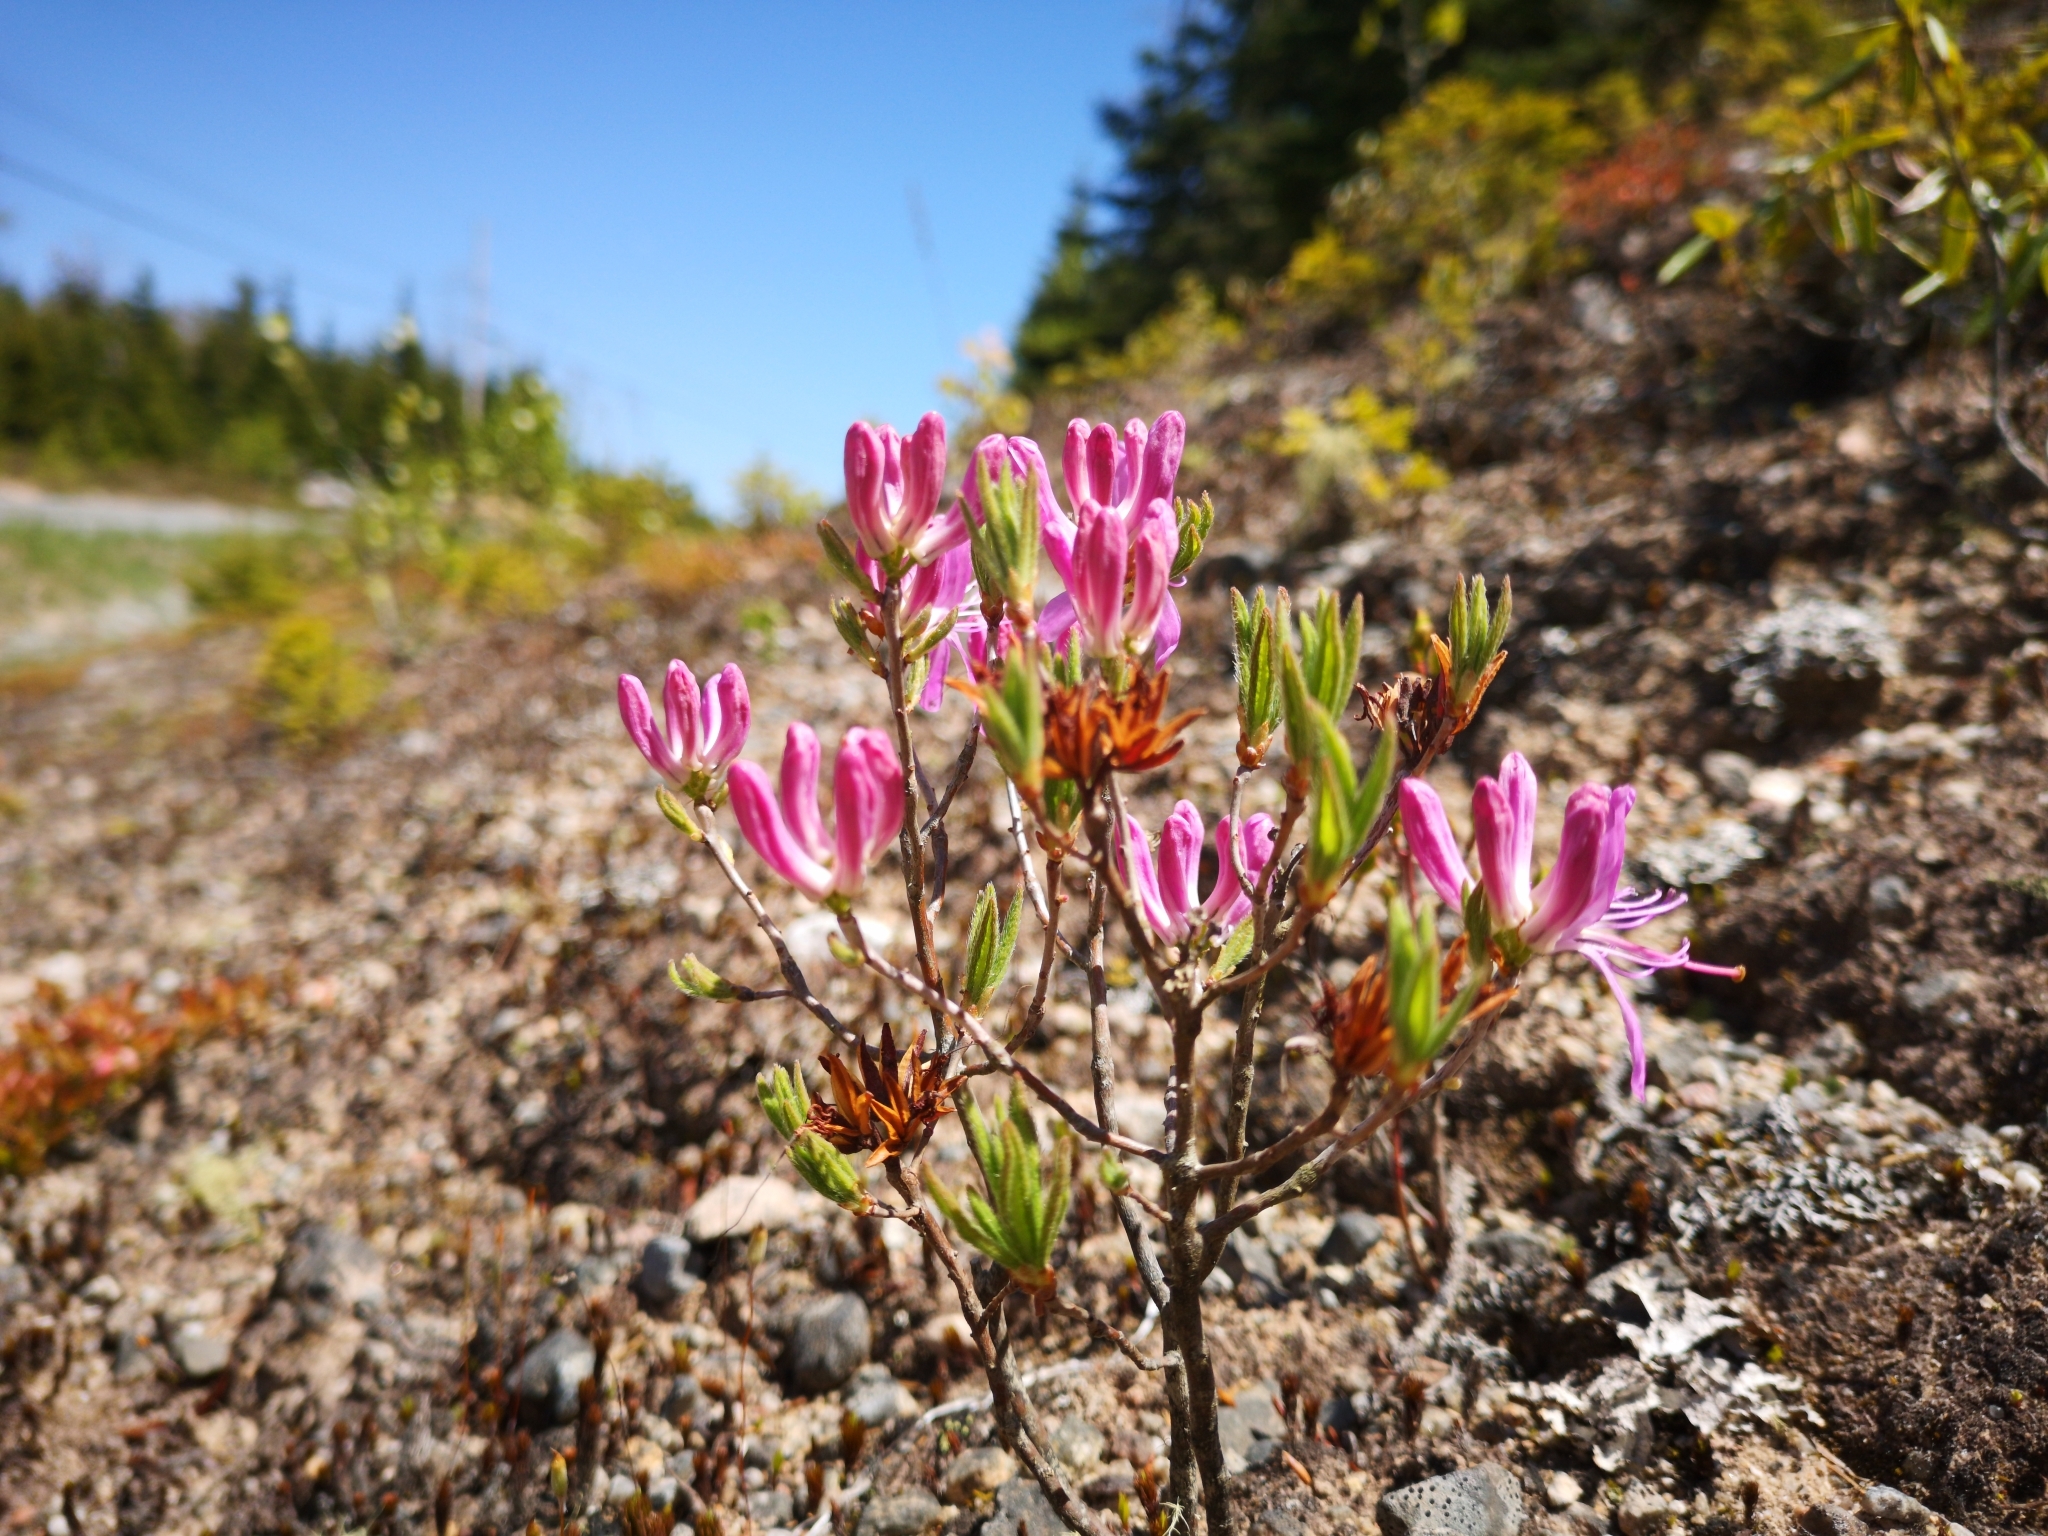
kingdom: Plantae
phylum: Tracheophyta
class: Magnoliopsida
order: Ericales
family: Ericaceae
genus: Rhododendron
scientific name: Rhododendron canadense
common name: Rhodora
